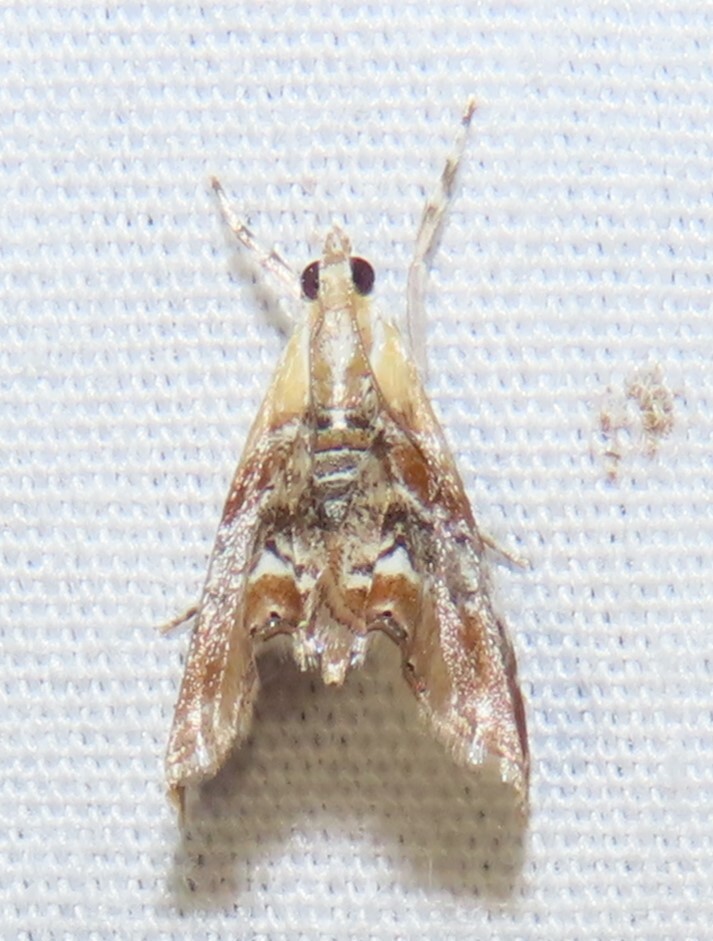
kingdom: Animalia
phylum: Arthropoda
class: Insecta
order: Lepidoptera
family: Crambidae
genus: Dicymolomia
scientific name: Dicymolomia julianalis
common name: Julia's dicymolomia moth
